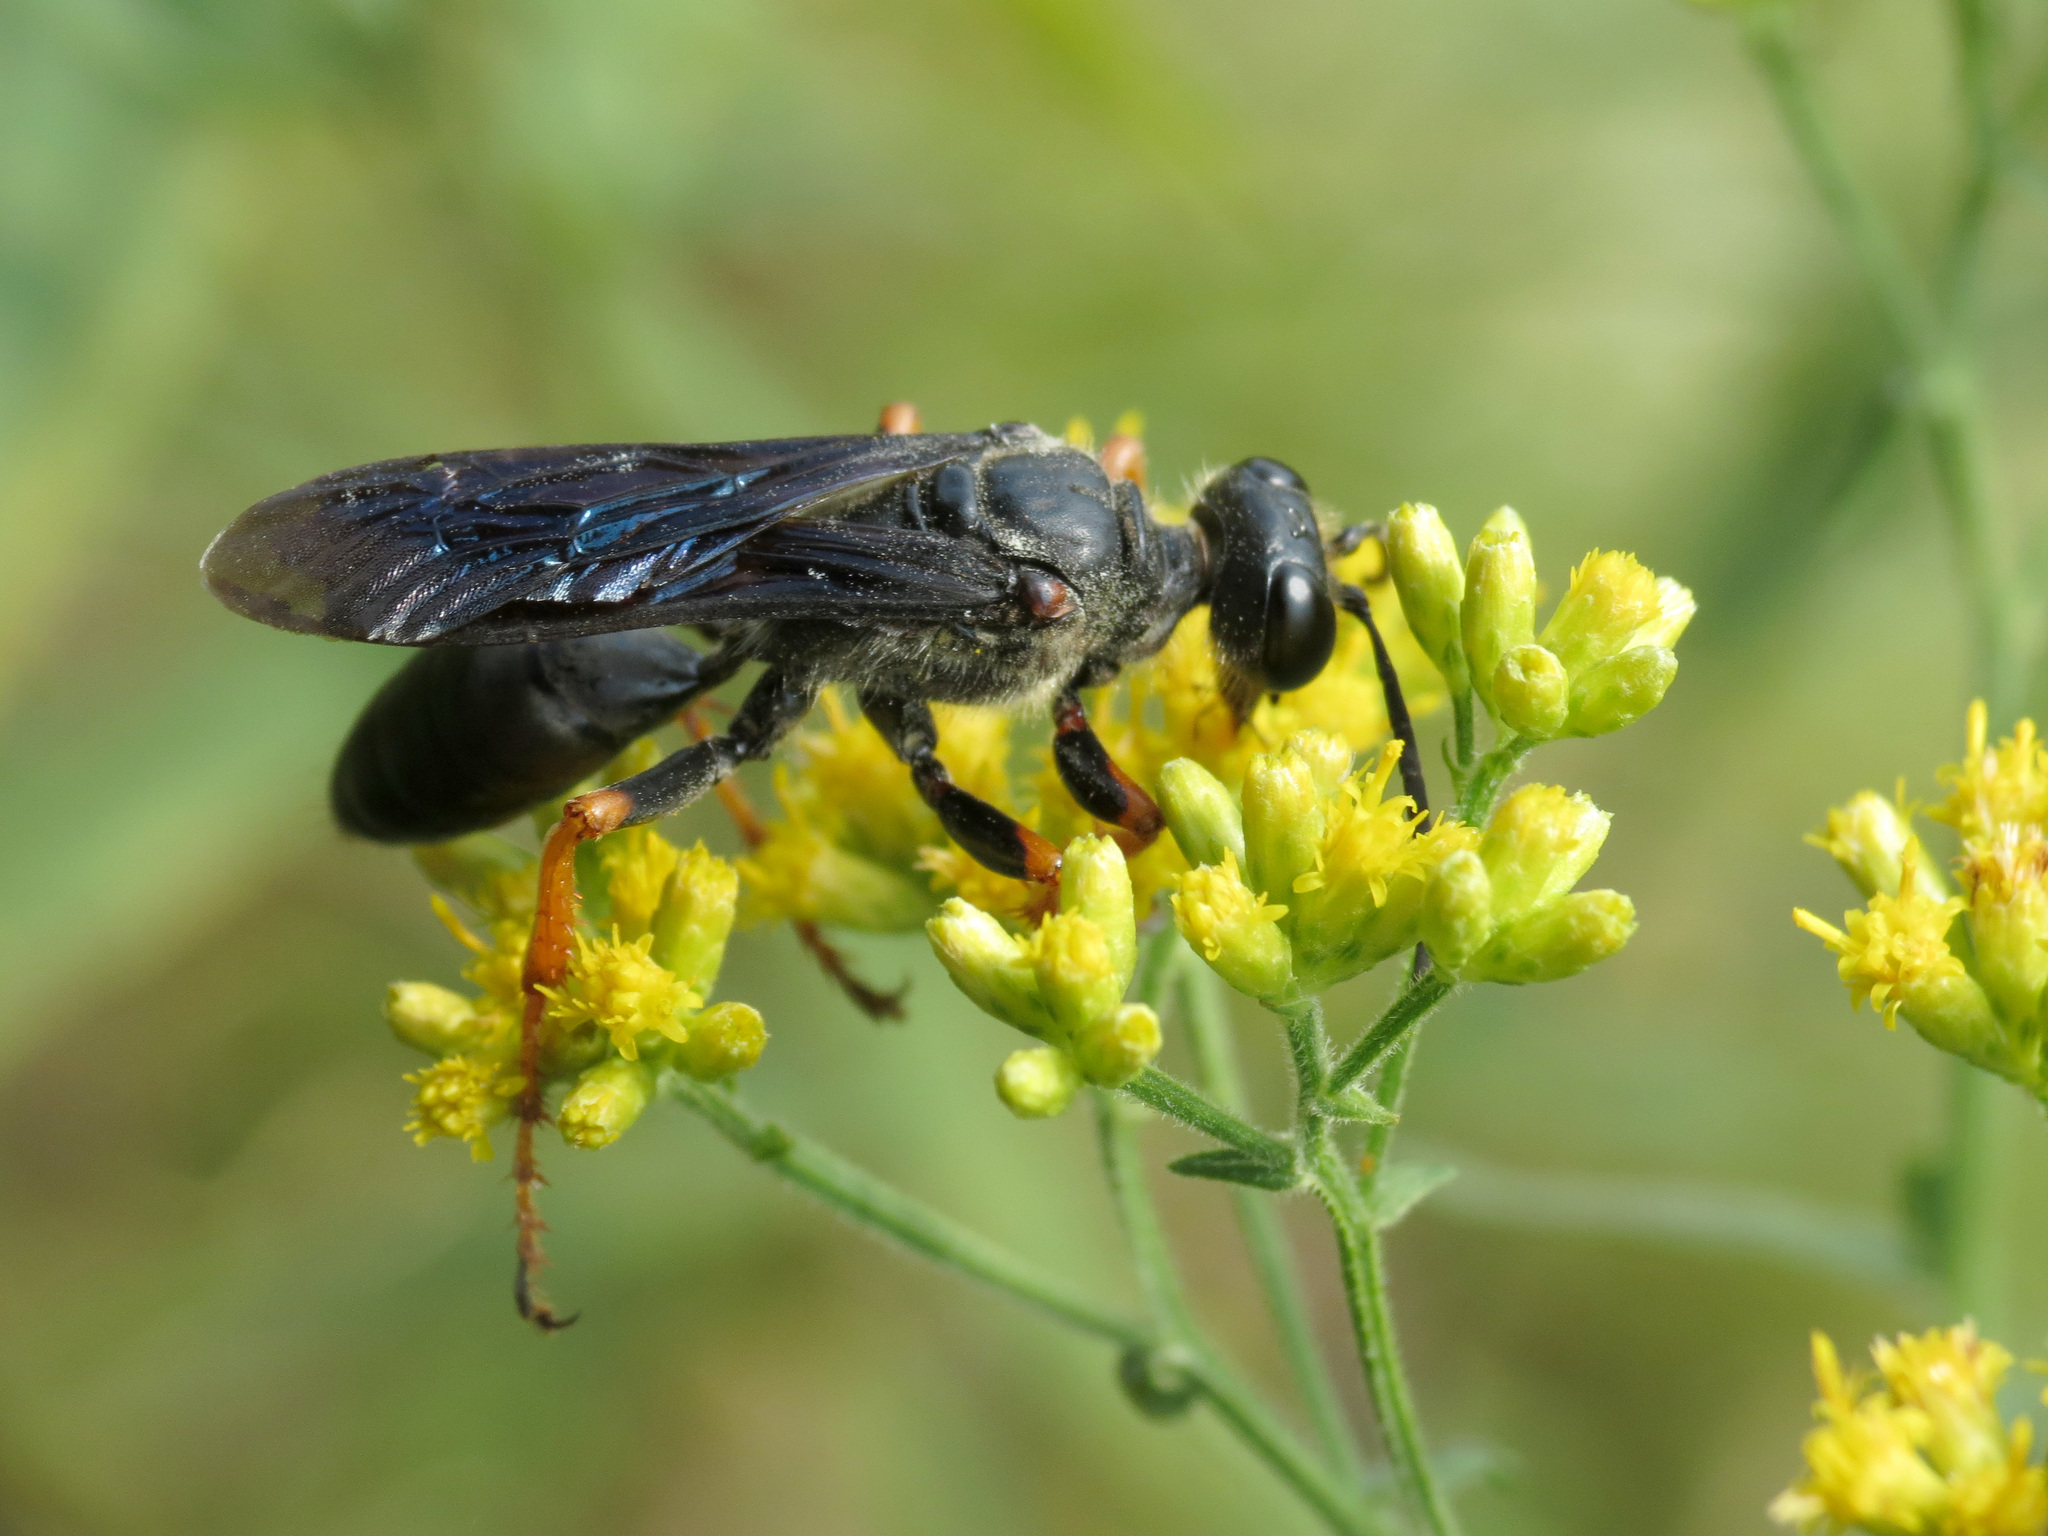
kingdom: Animalia
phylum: Arthropoda
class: Insecta
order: Hymenoptera
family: Sphecidae
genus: Sphex
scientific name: Sphex nudus
